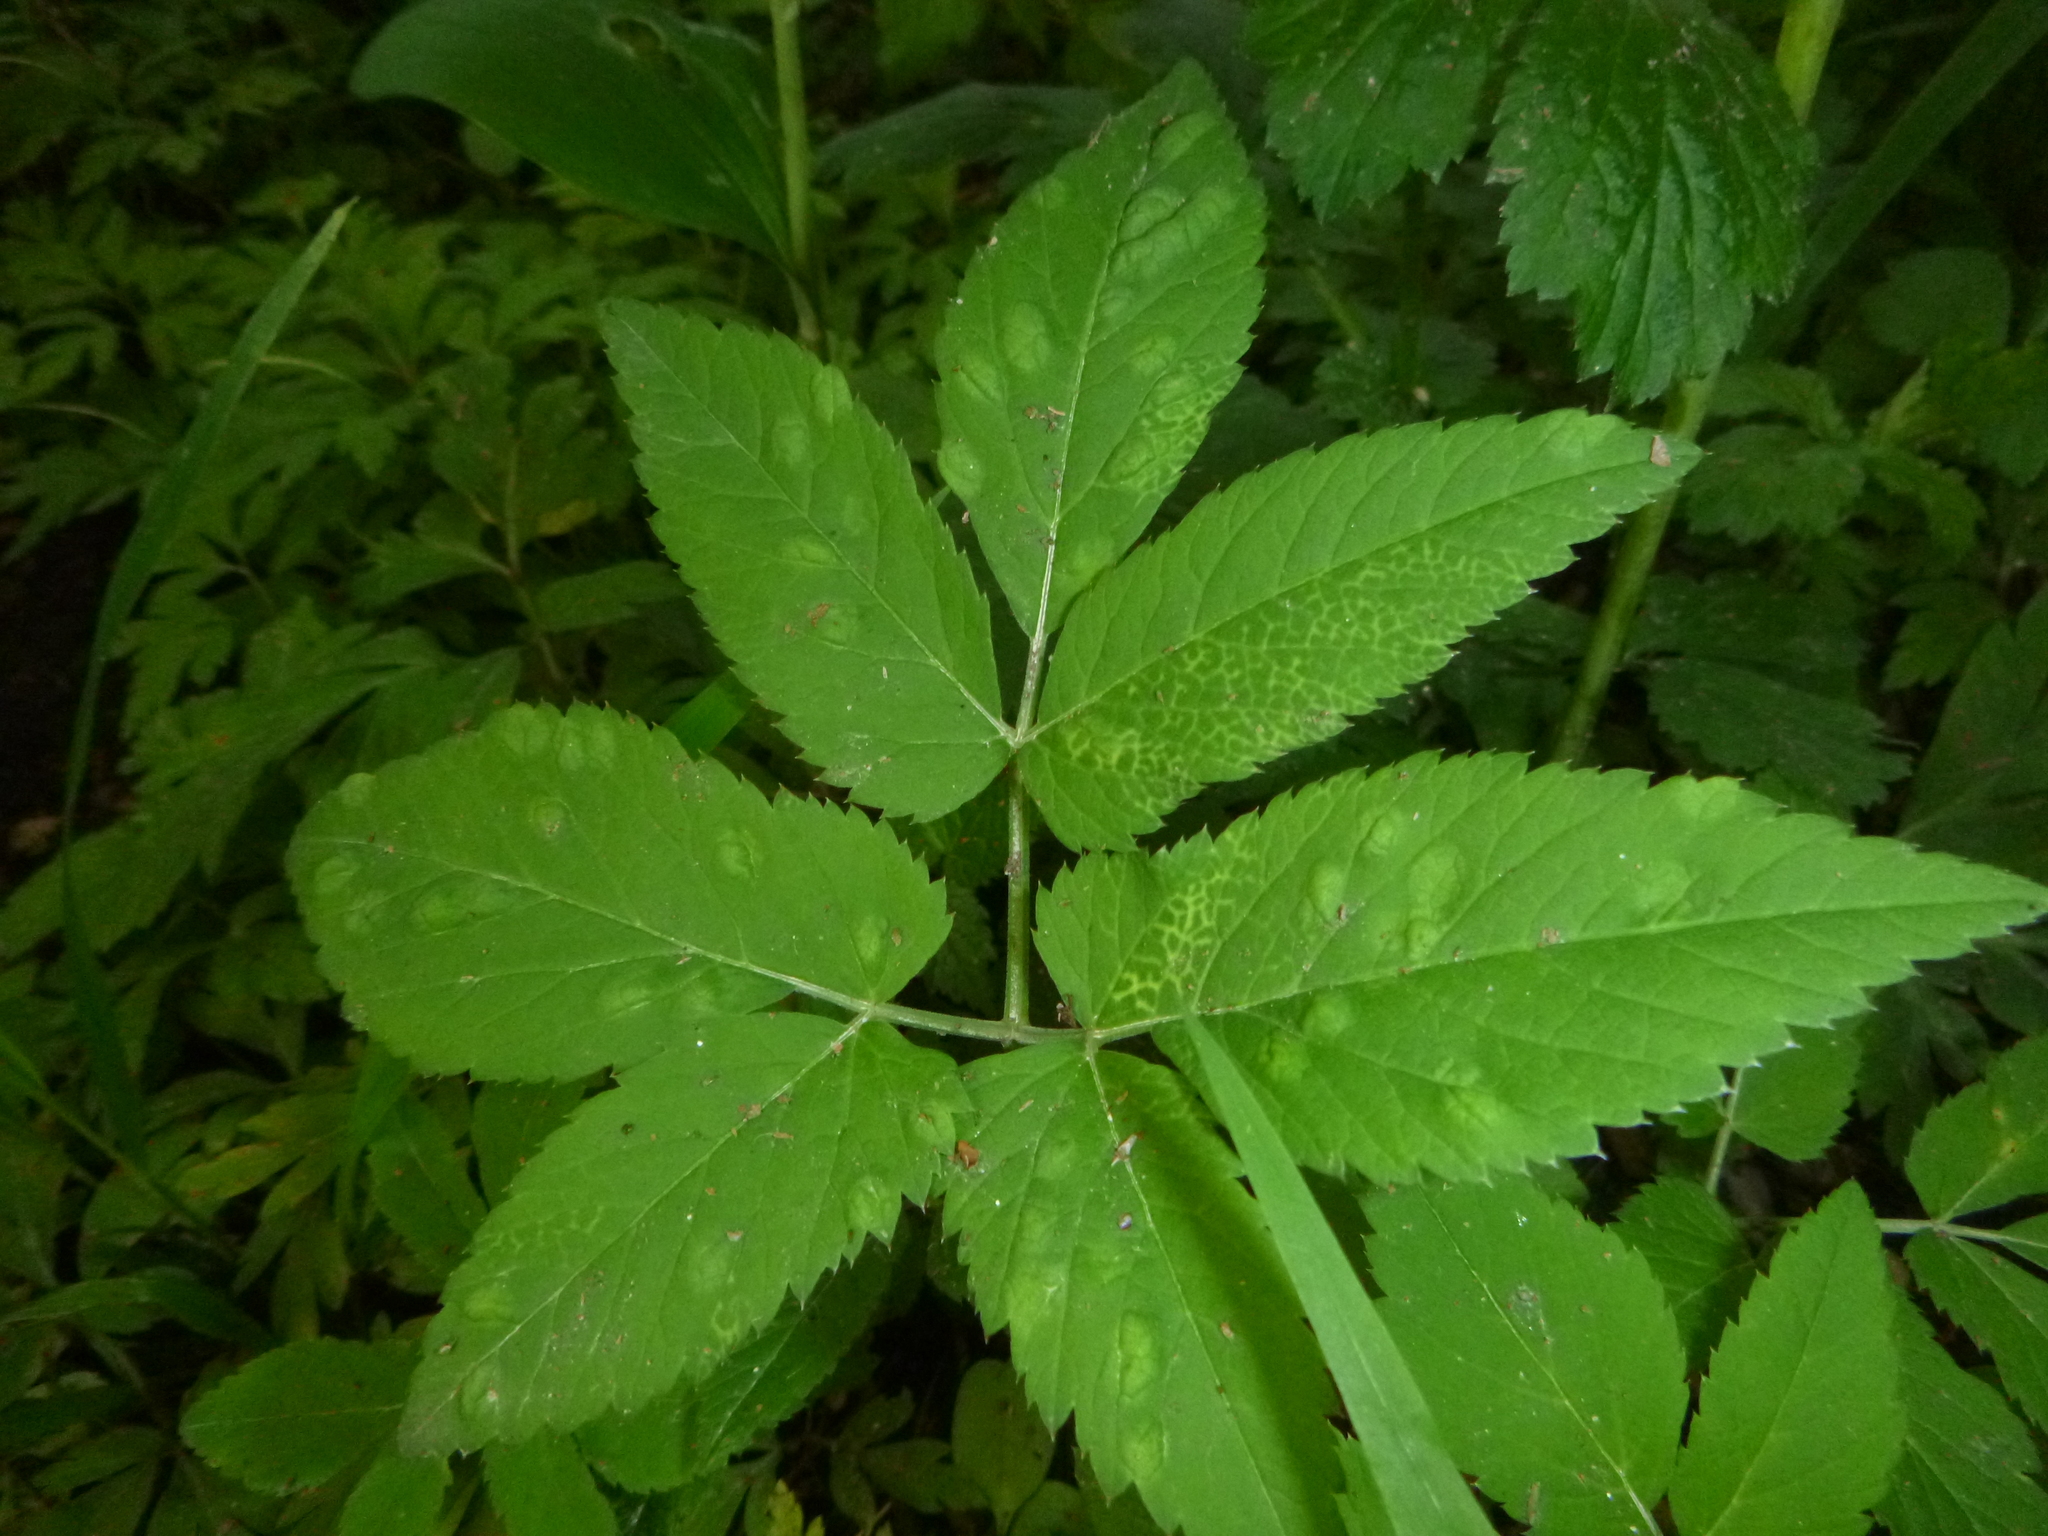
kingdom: Plantae
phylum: Tracheophyta
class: Magnoliopsida
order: Apiales
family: Apiaceae
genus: Aegopodium
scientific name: Aegopodium podagraria
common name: Ground-elder
